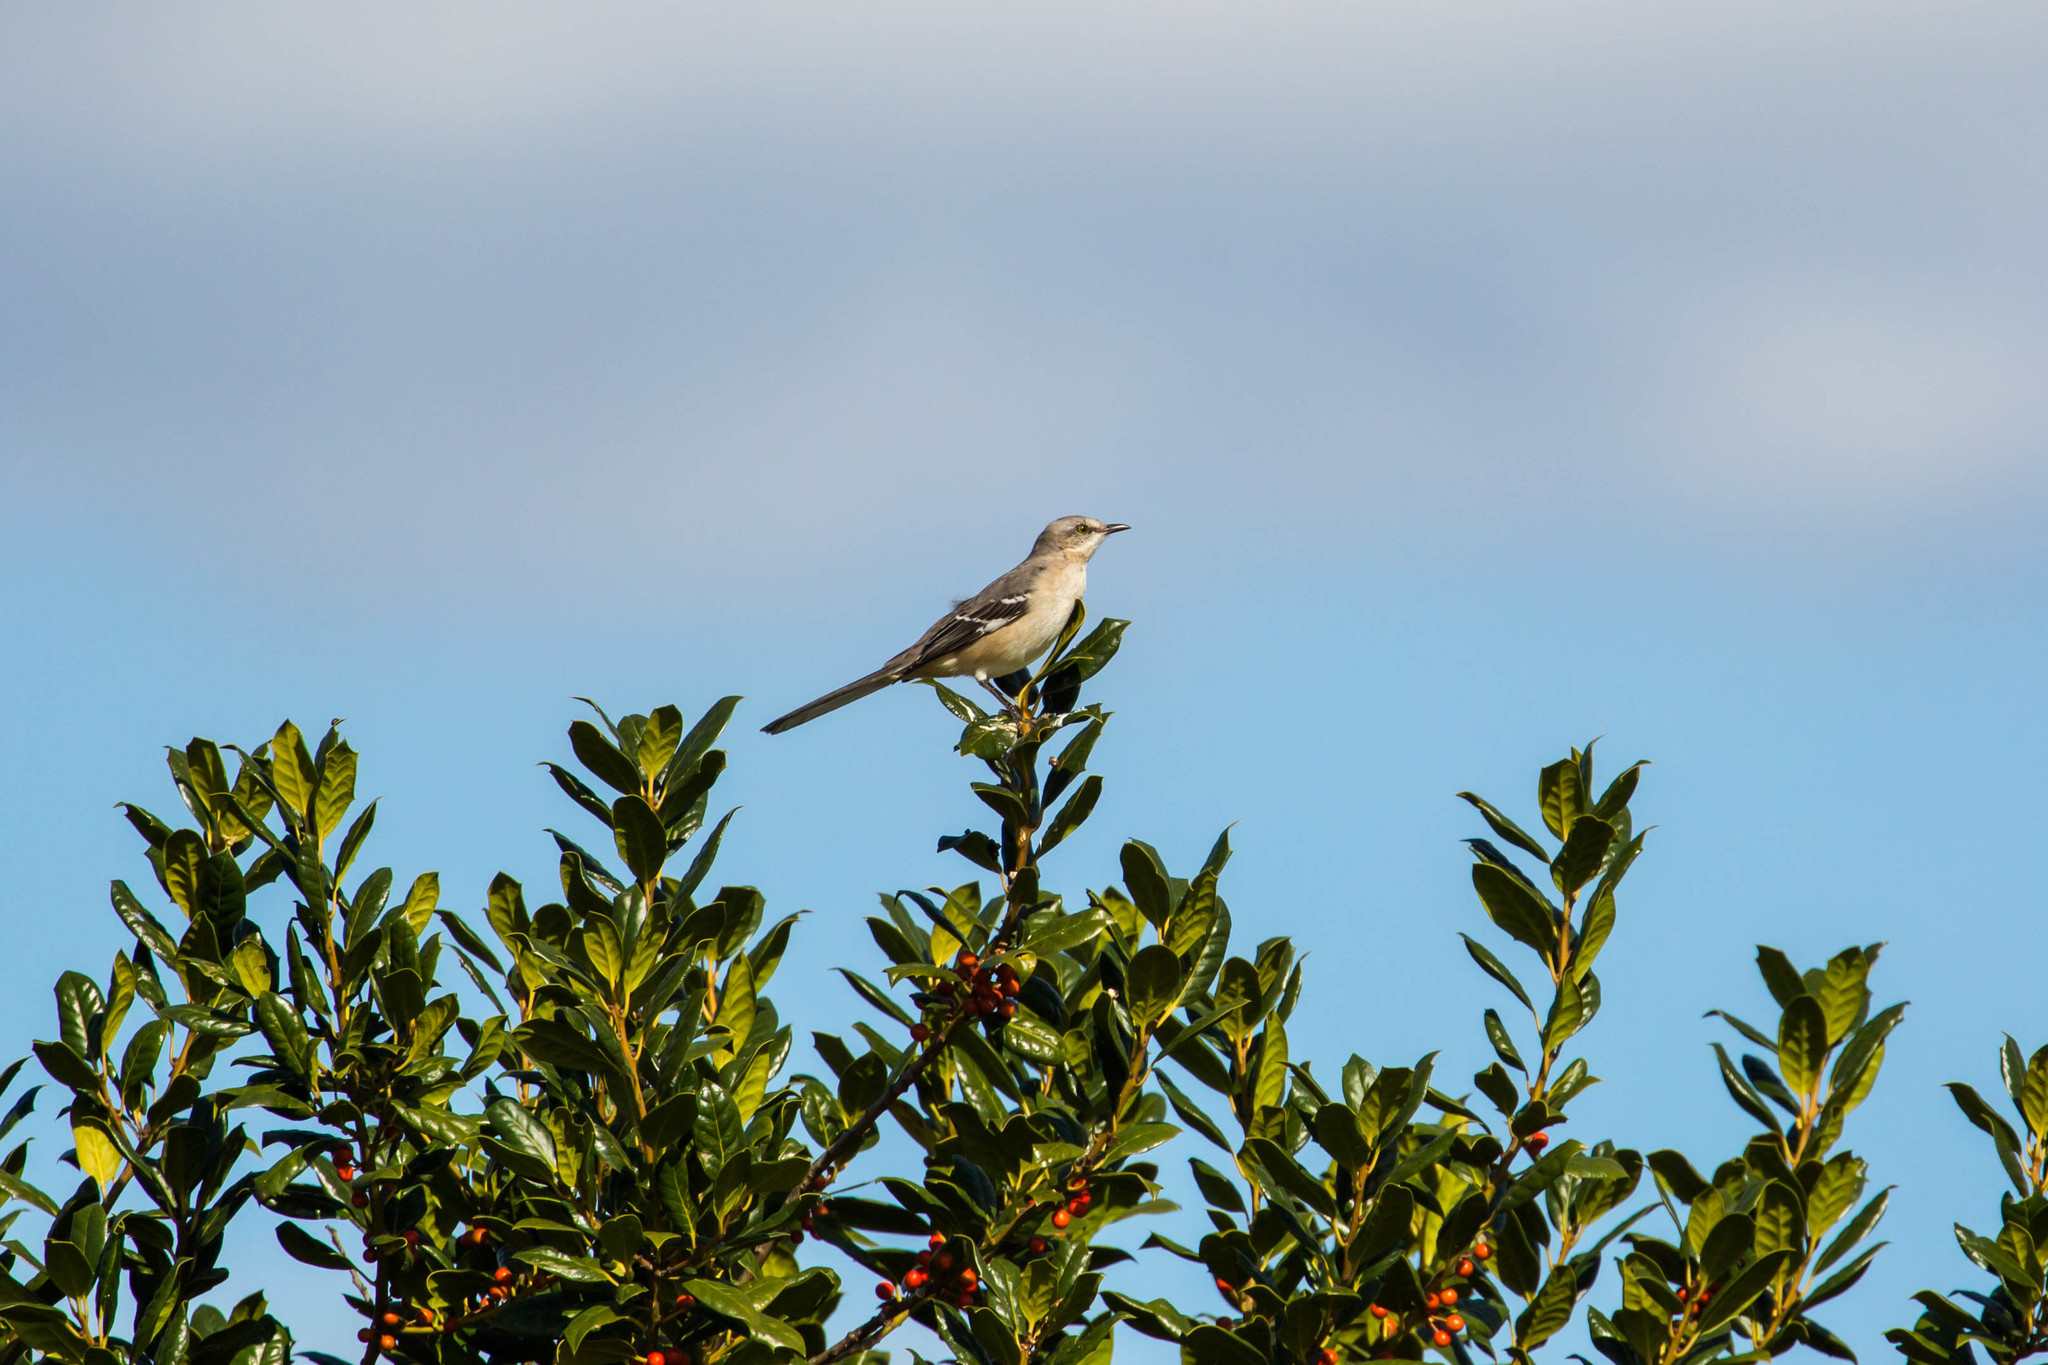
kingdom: Animalia
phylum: Chordata
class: Aves
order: Passeriformes
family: Mimidae
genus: Mimus
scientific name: Mimus polyglottos
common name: Northern mockingbird
